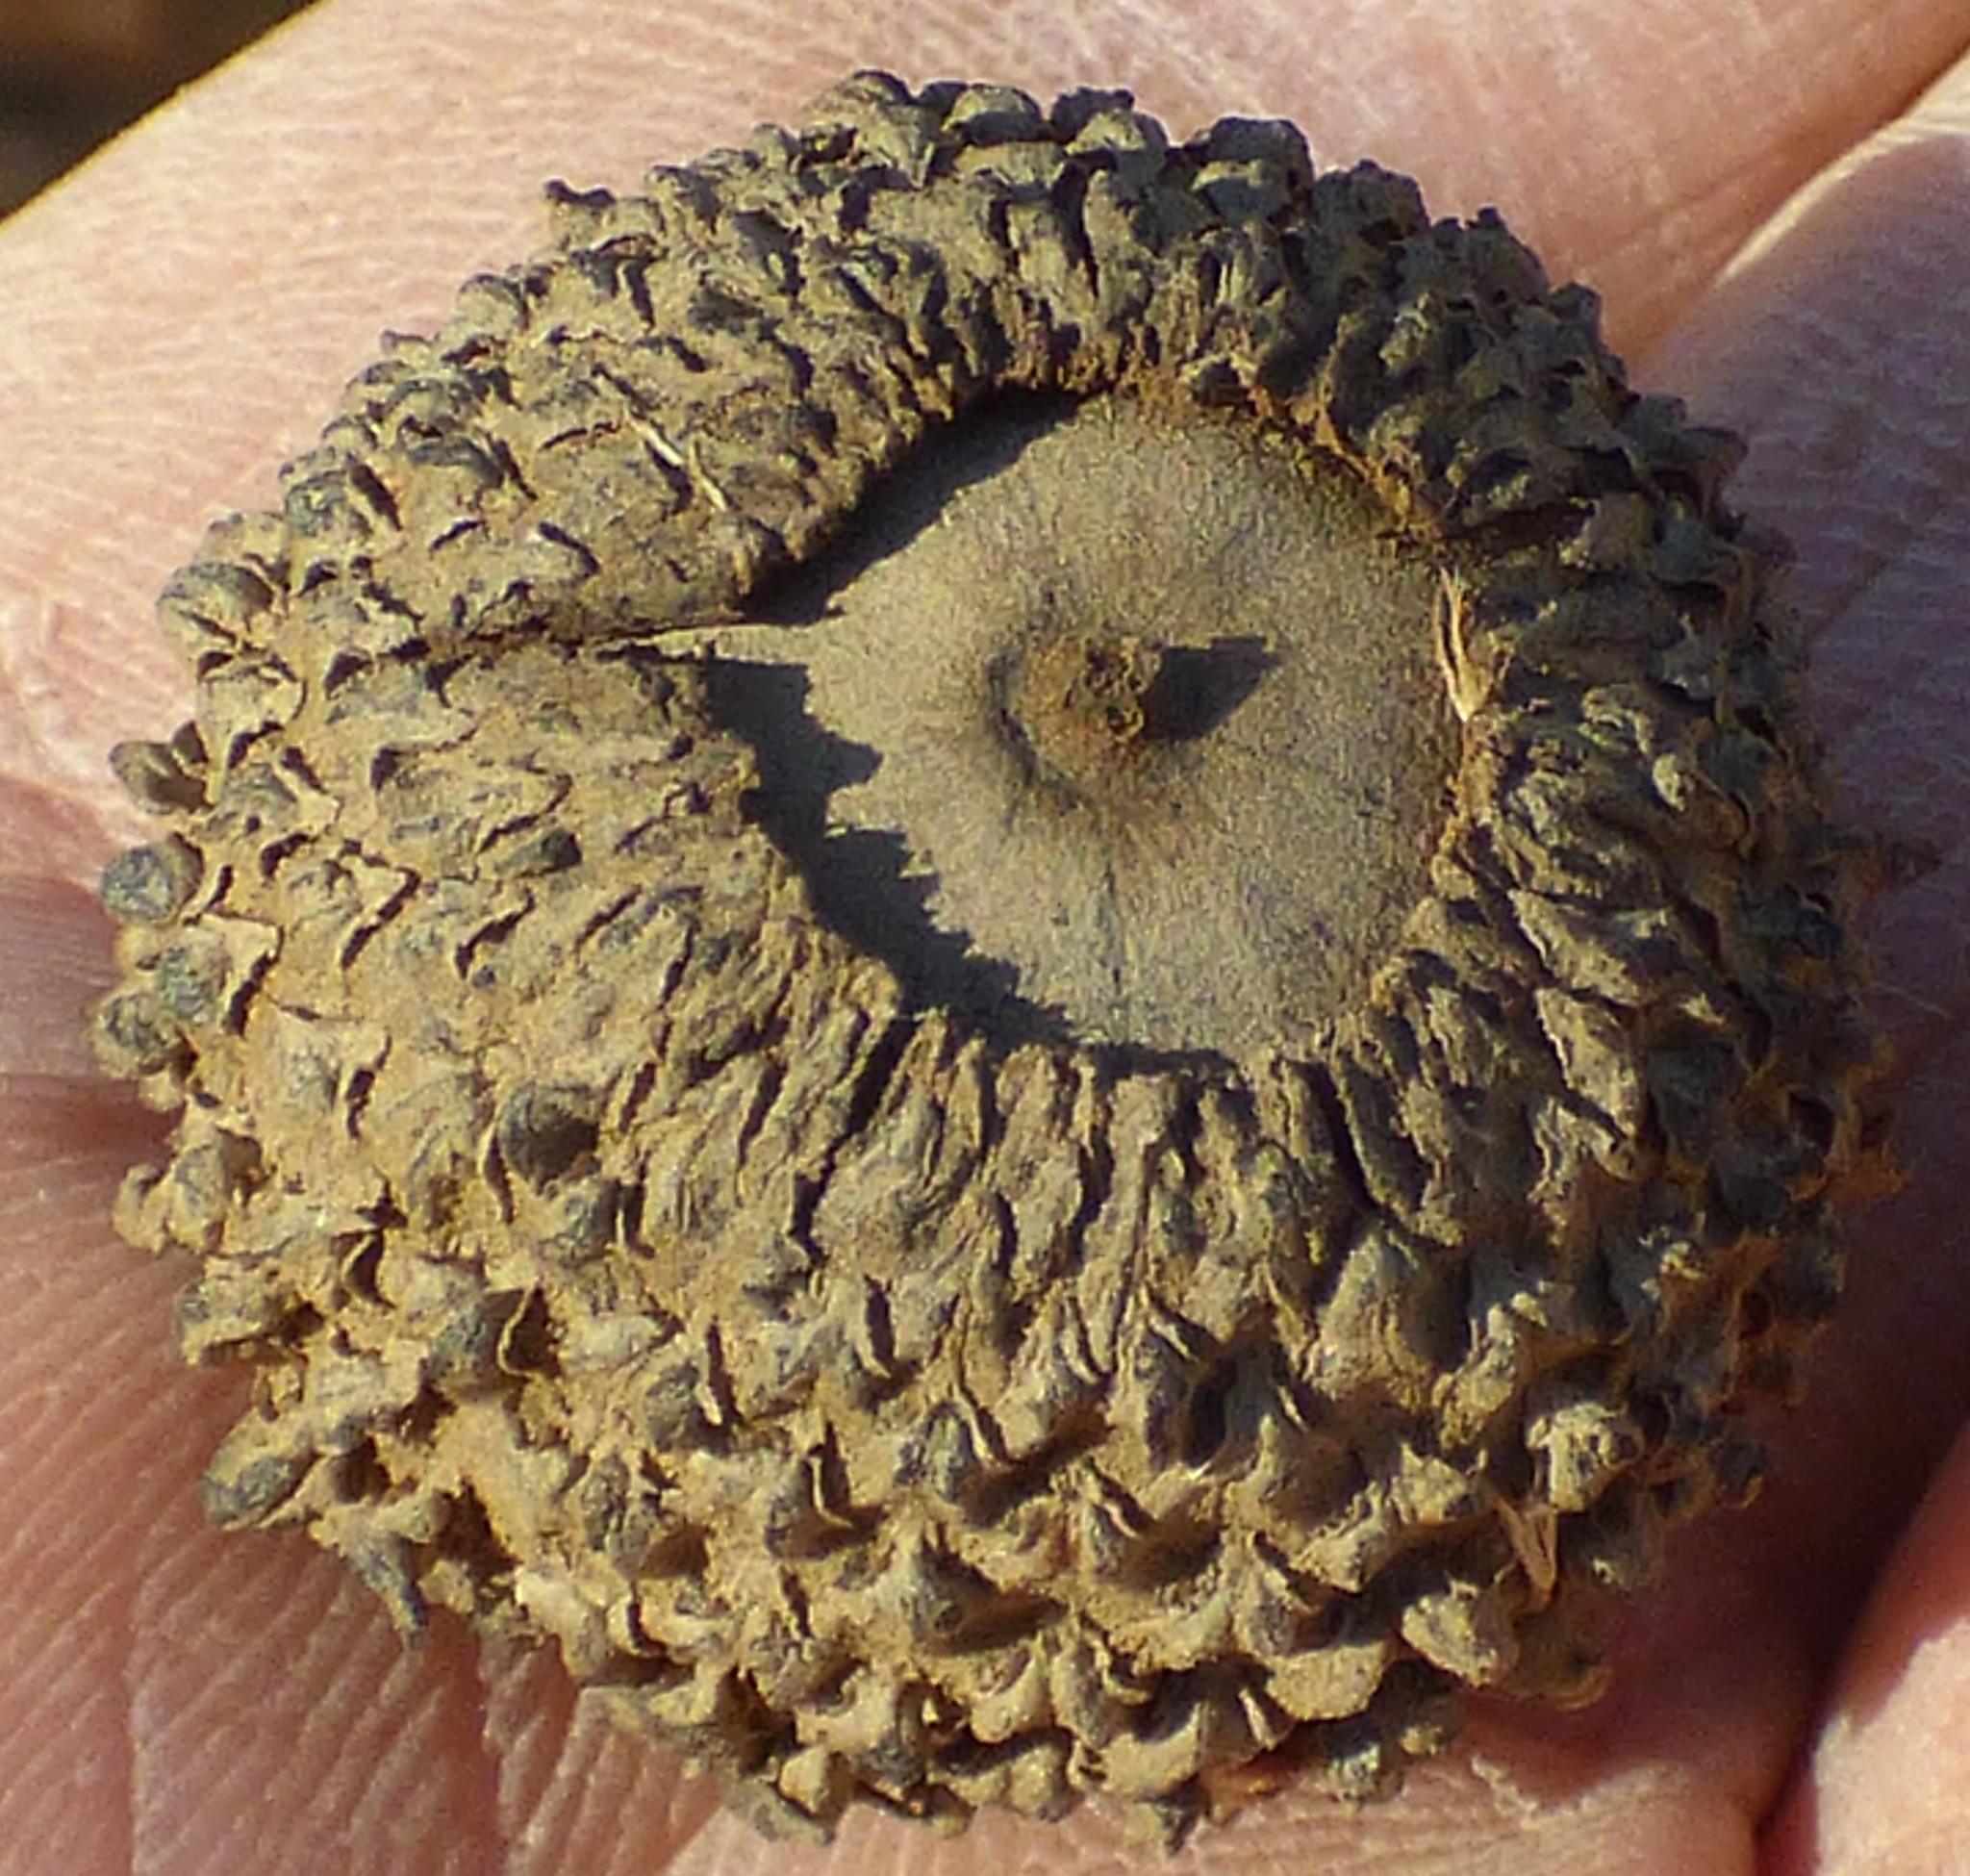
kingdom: Plantae
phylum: Tracheophyta
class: Magnoliopsida
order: Fagales
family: Fagaceae
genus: Quercus
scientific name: Quercus lyrata
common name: Overcup oak
